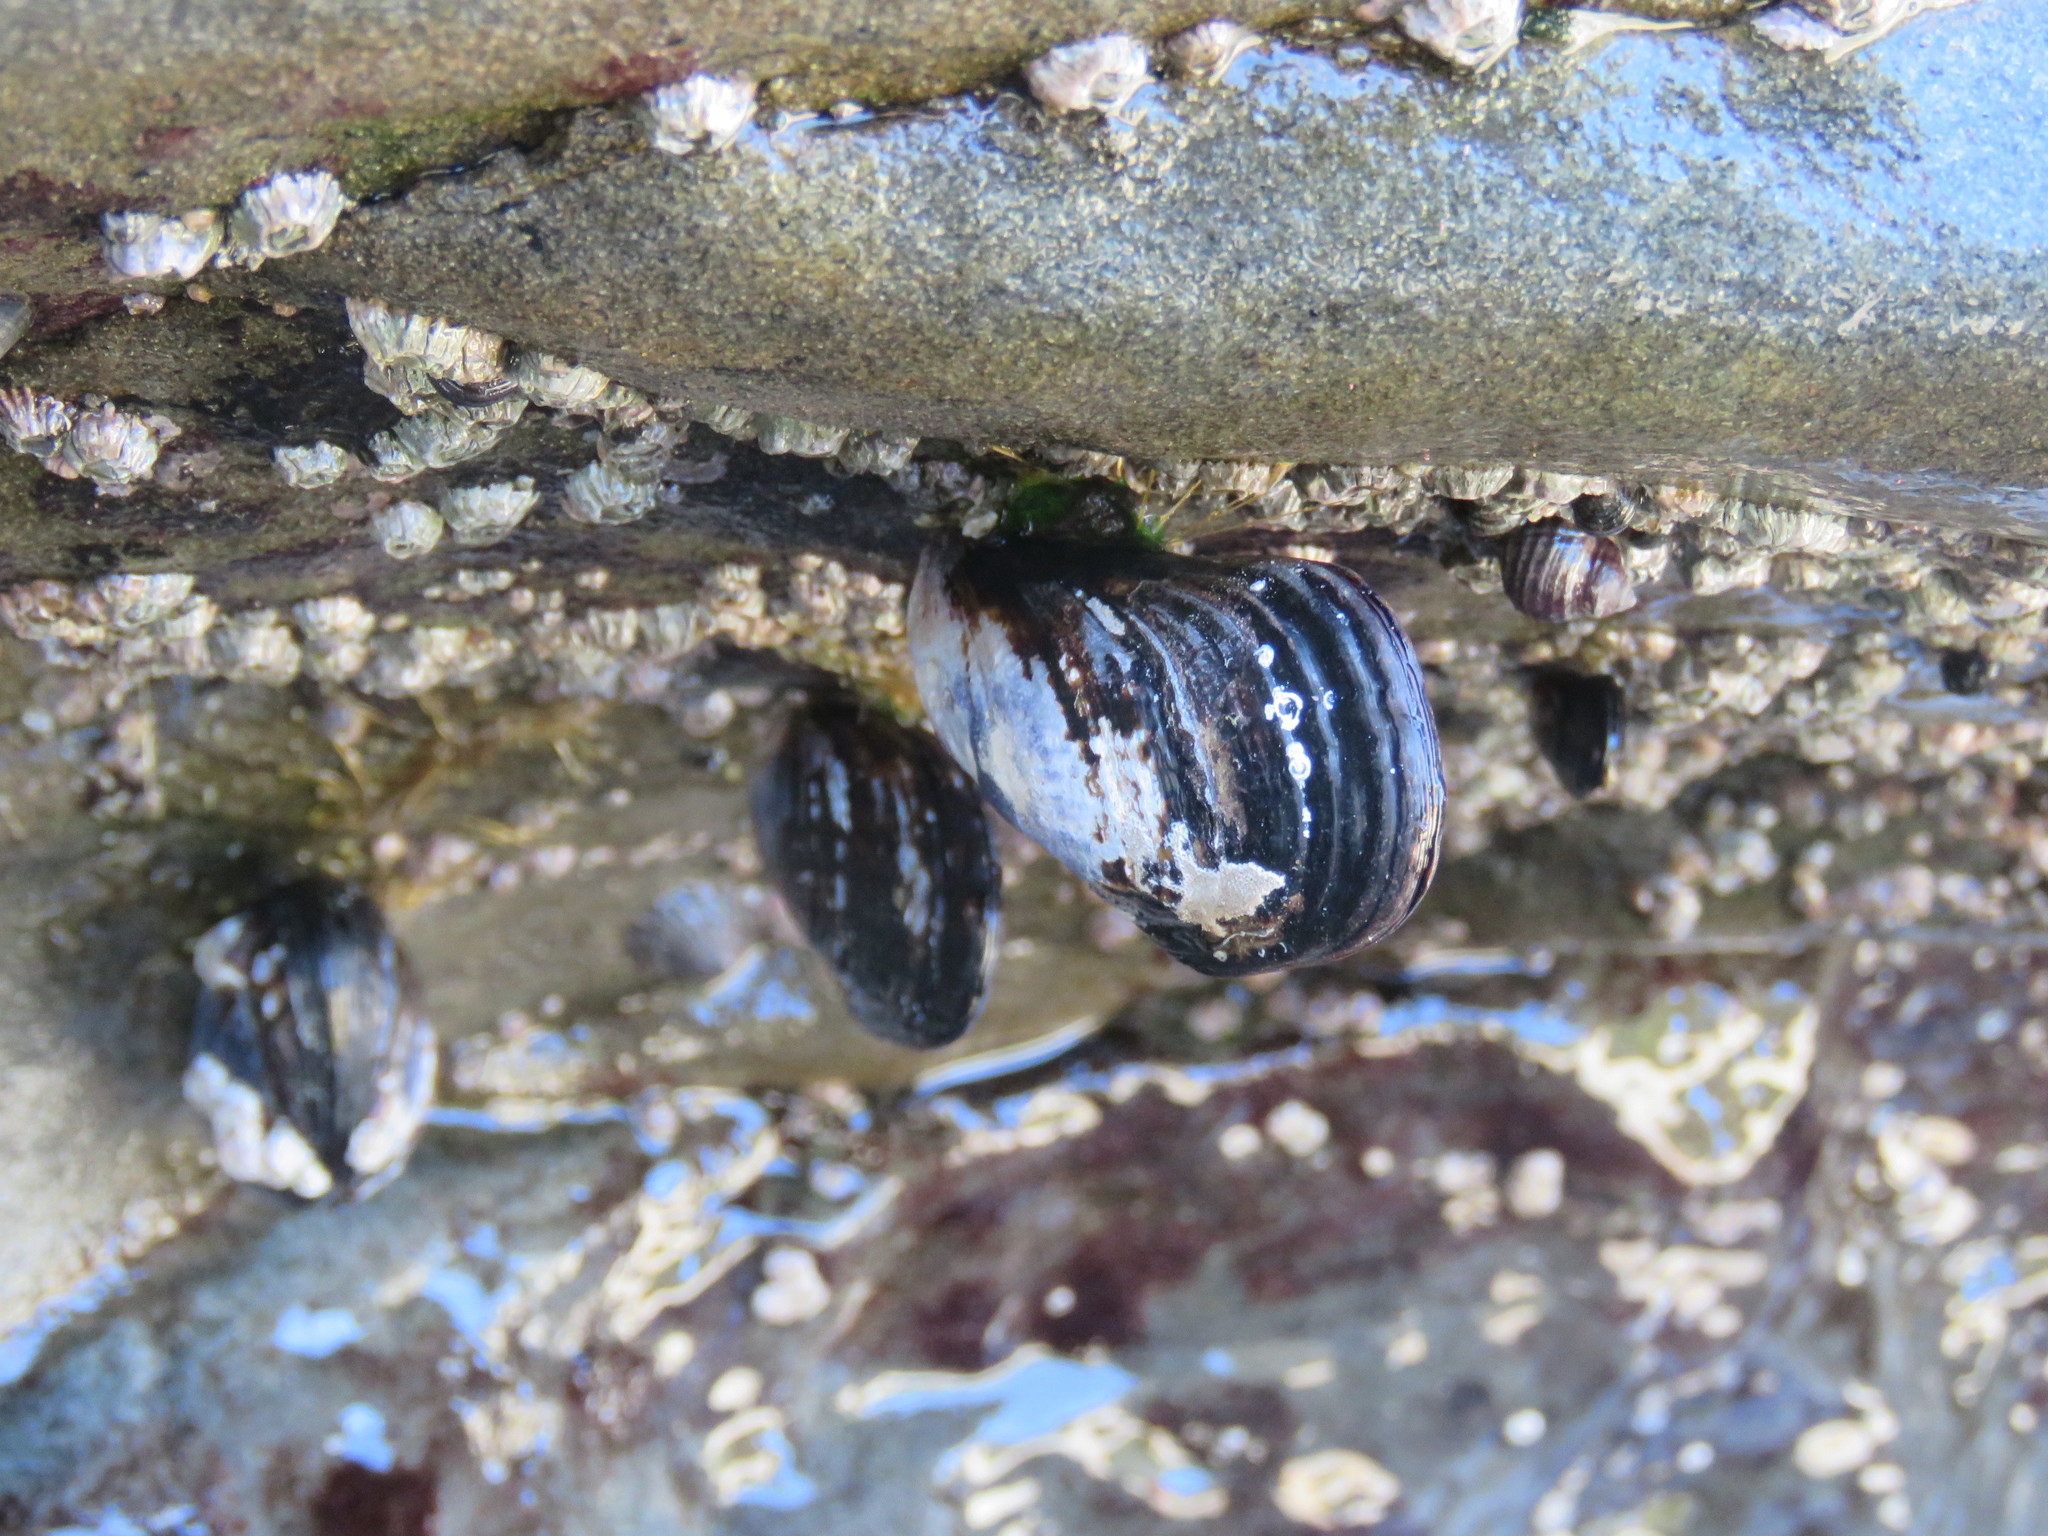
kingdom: Animalia
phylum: Mollusca
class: Bivalvia
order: Mytilida
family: Mytilidae
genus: Mytilus
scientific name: Mytilus californianus
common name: California mussel
